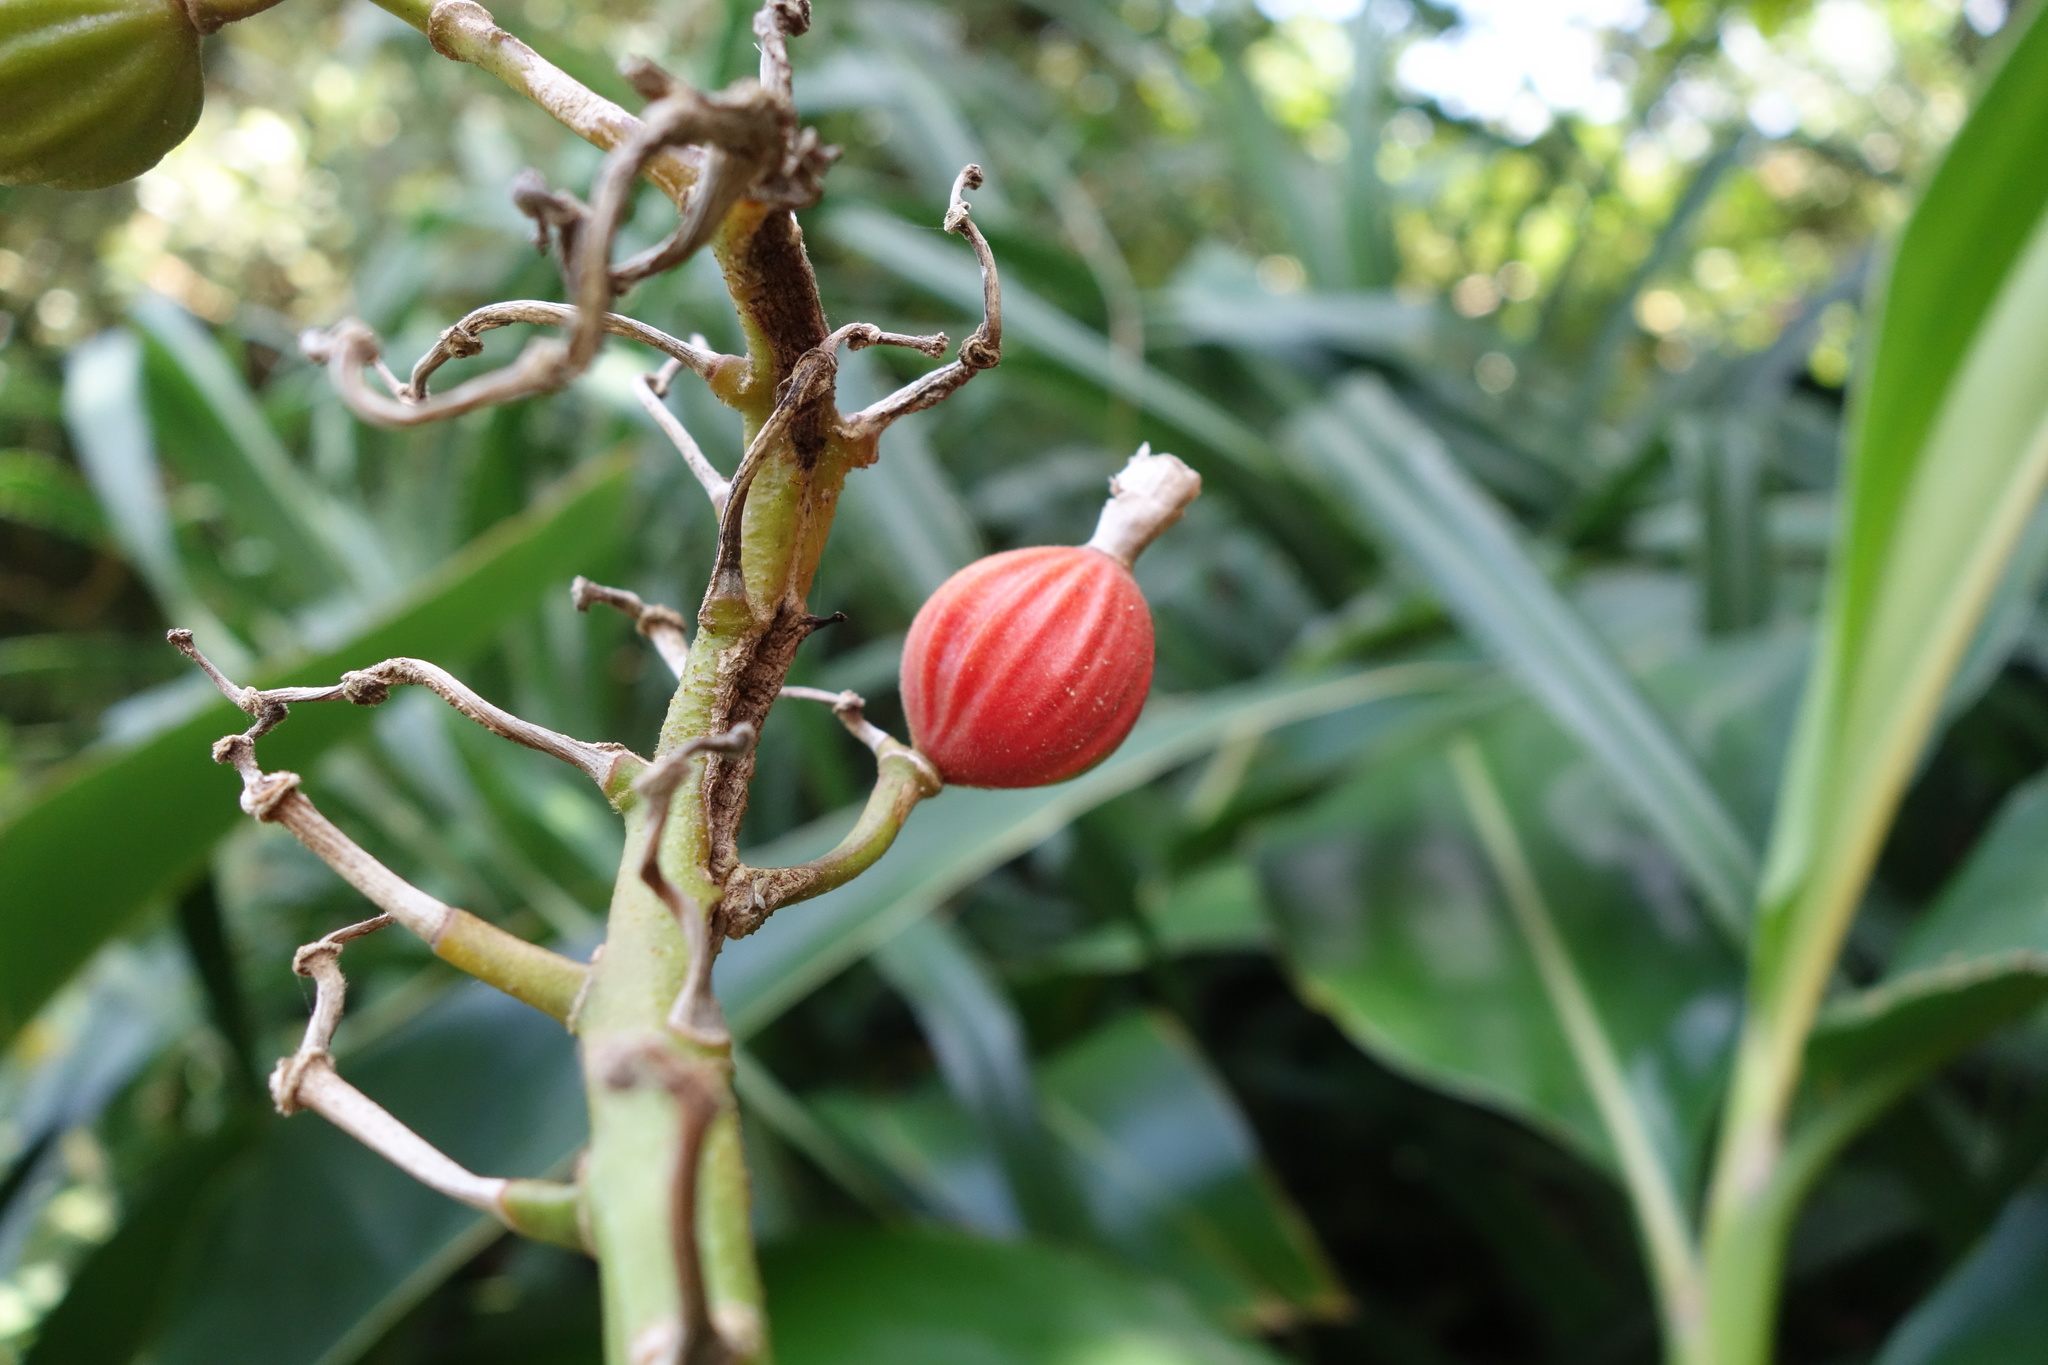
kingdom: Plantae
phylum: Tracheophyta
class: Liliopsida
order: Zingiberales
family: Zingiberaceae
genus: Alpinia
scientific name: Alpinia koshunensis
